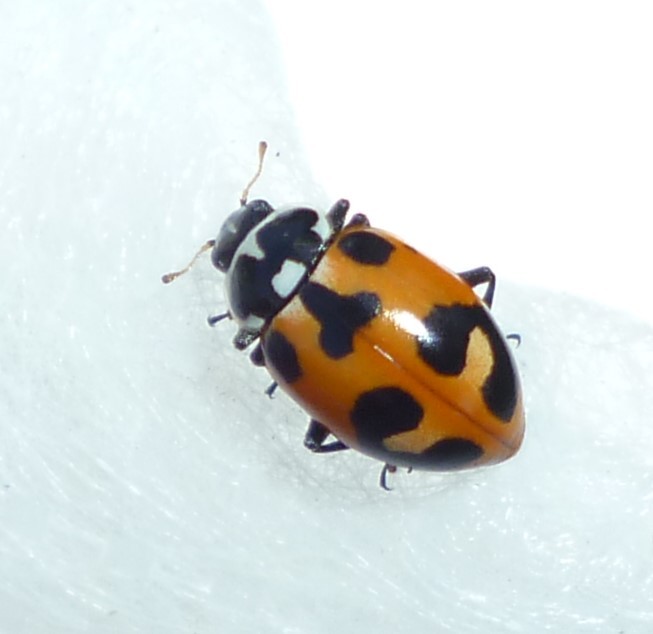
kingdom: Animalia
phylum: Arthropoda
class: Insecta
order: Coleoptera
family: Coccinellidae
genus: Hippodamia
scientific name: Hippodamia parenthesis
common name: Parenthesis lady beetle
